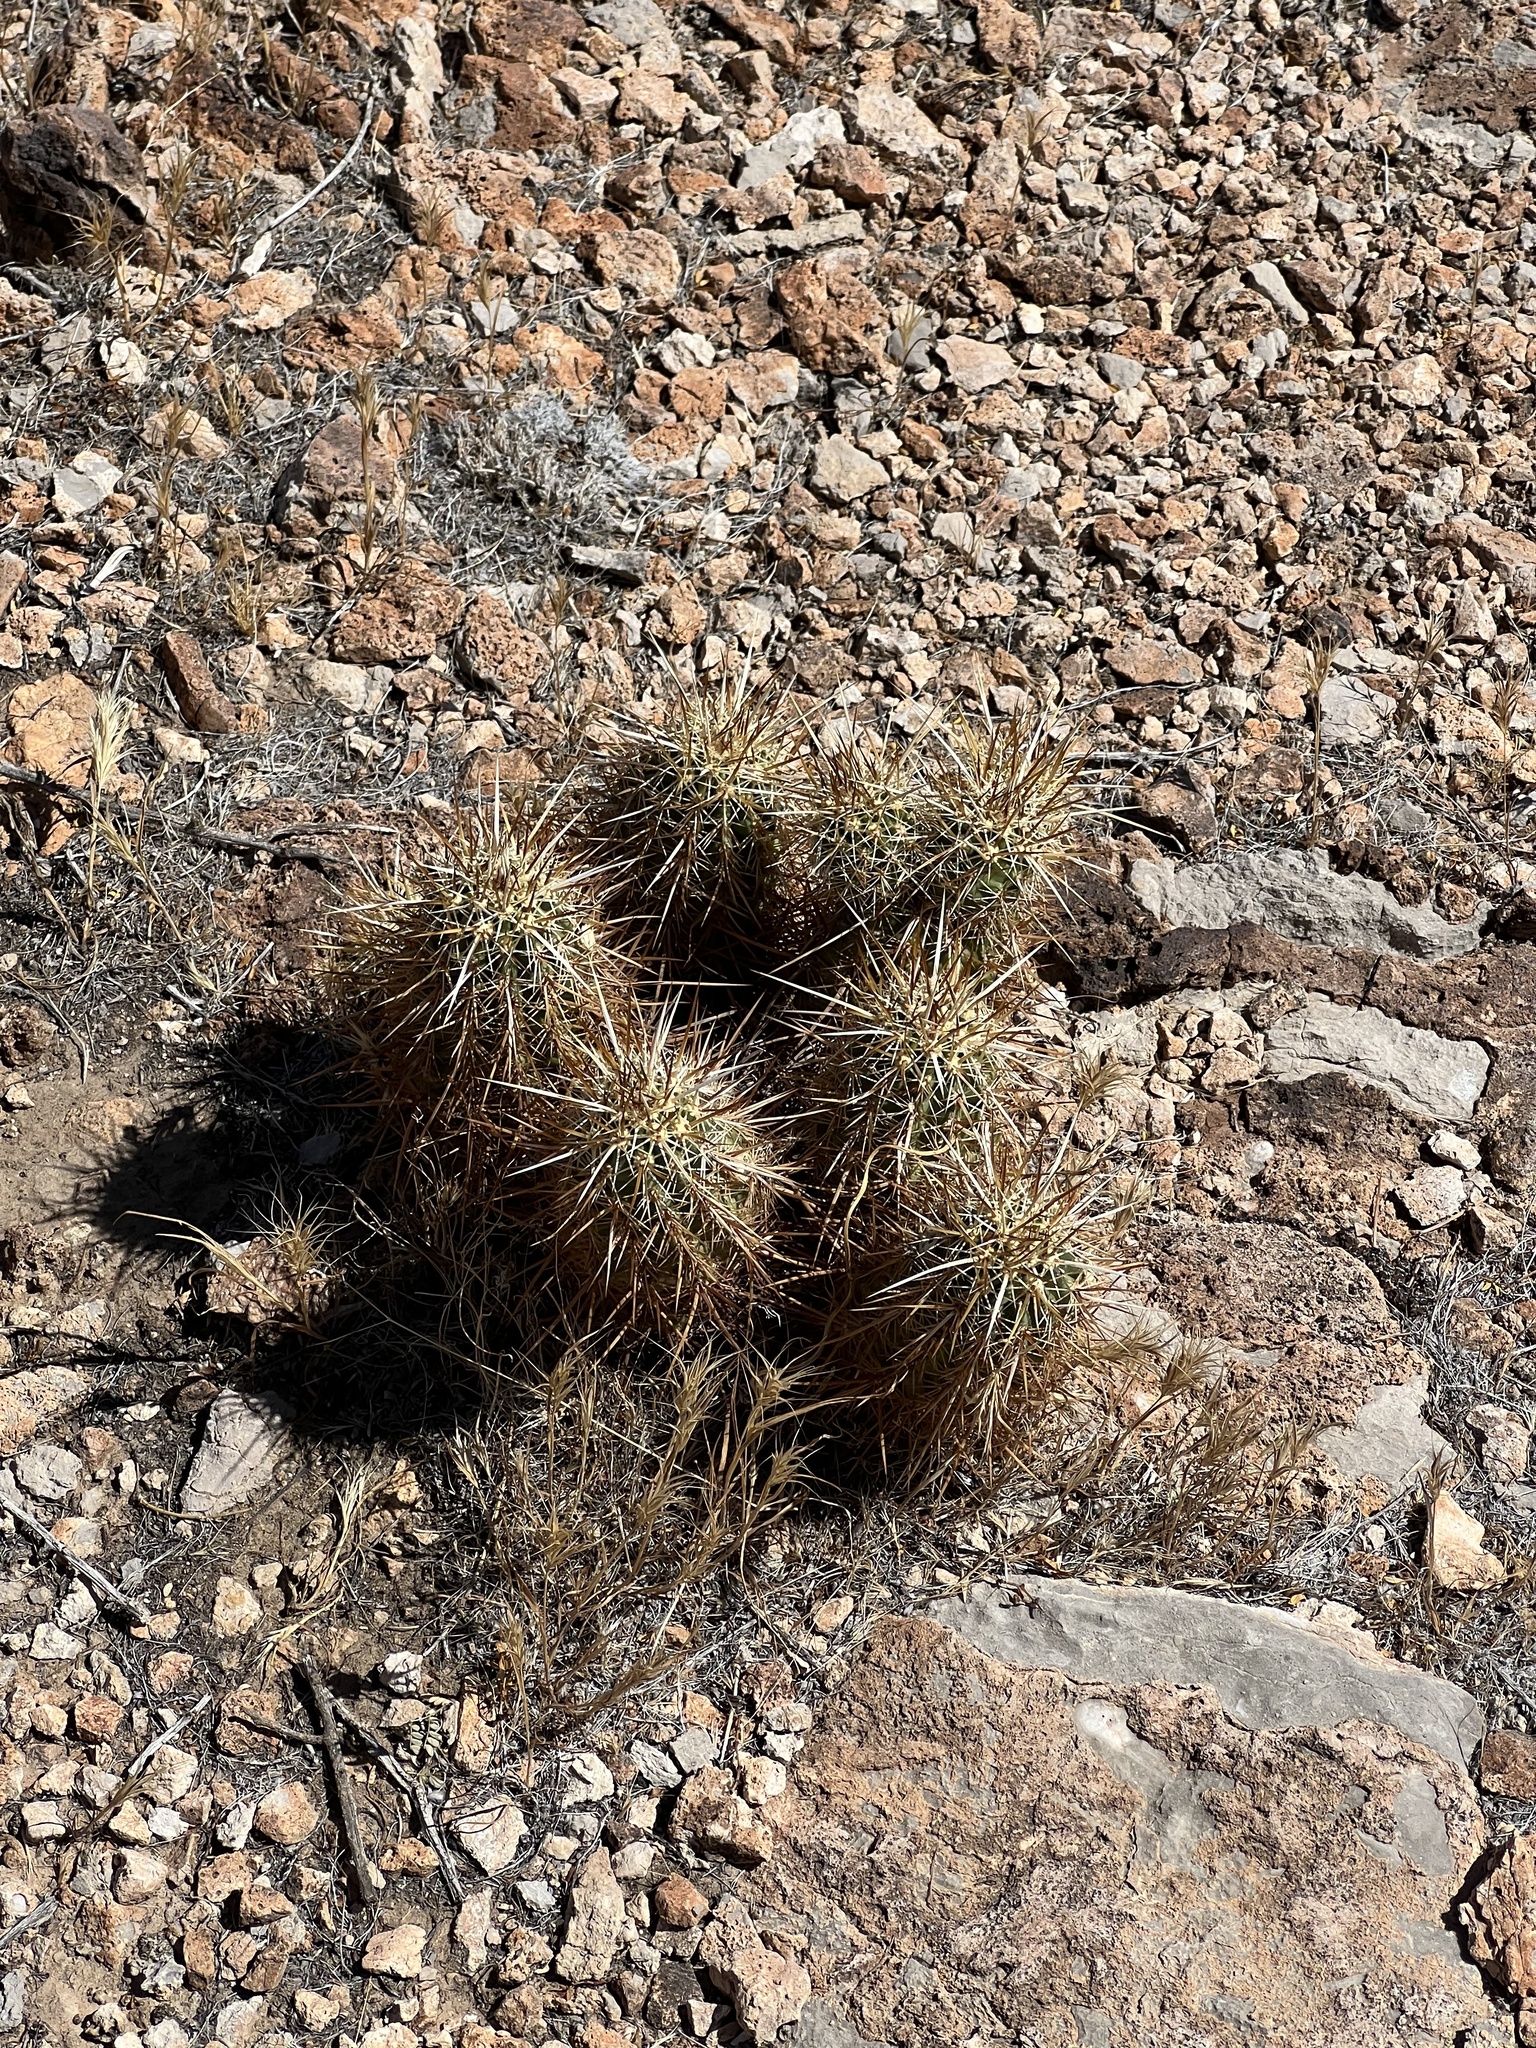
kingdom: Plantae
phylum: Tracheophyta
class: Magnoliopsida
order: Caryophyllales
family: Cactaceae
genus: Echinocereus
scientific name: Echinocereus engelmannii
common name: Engelmann's hedgehog cactus
